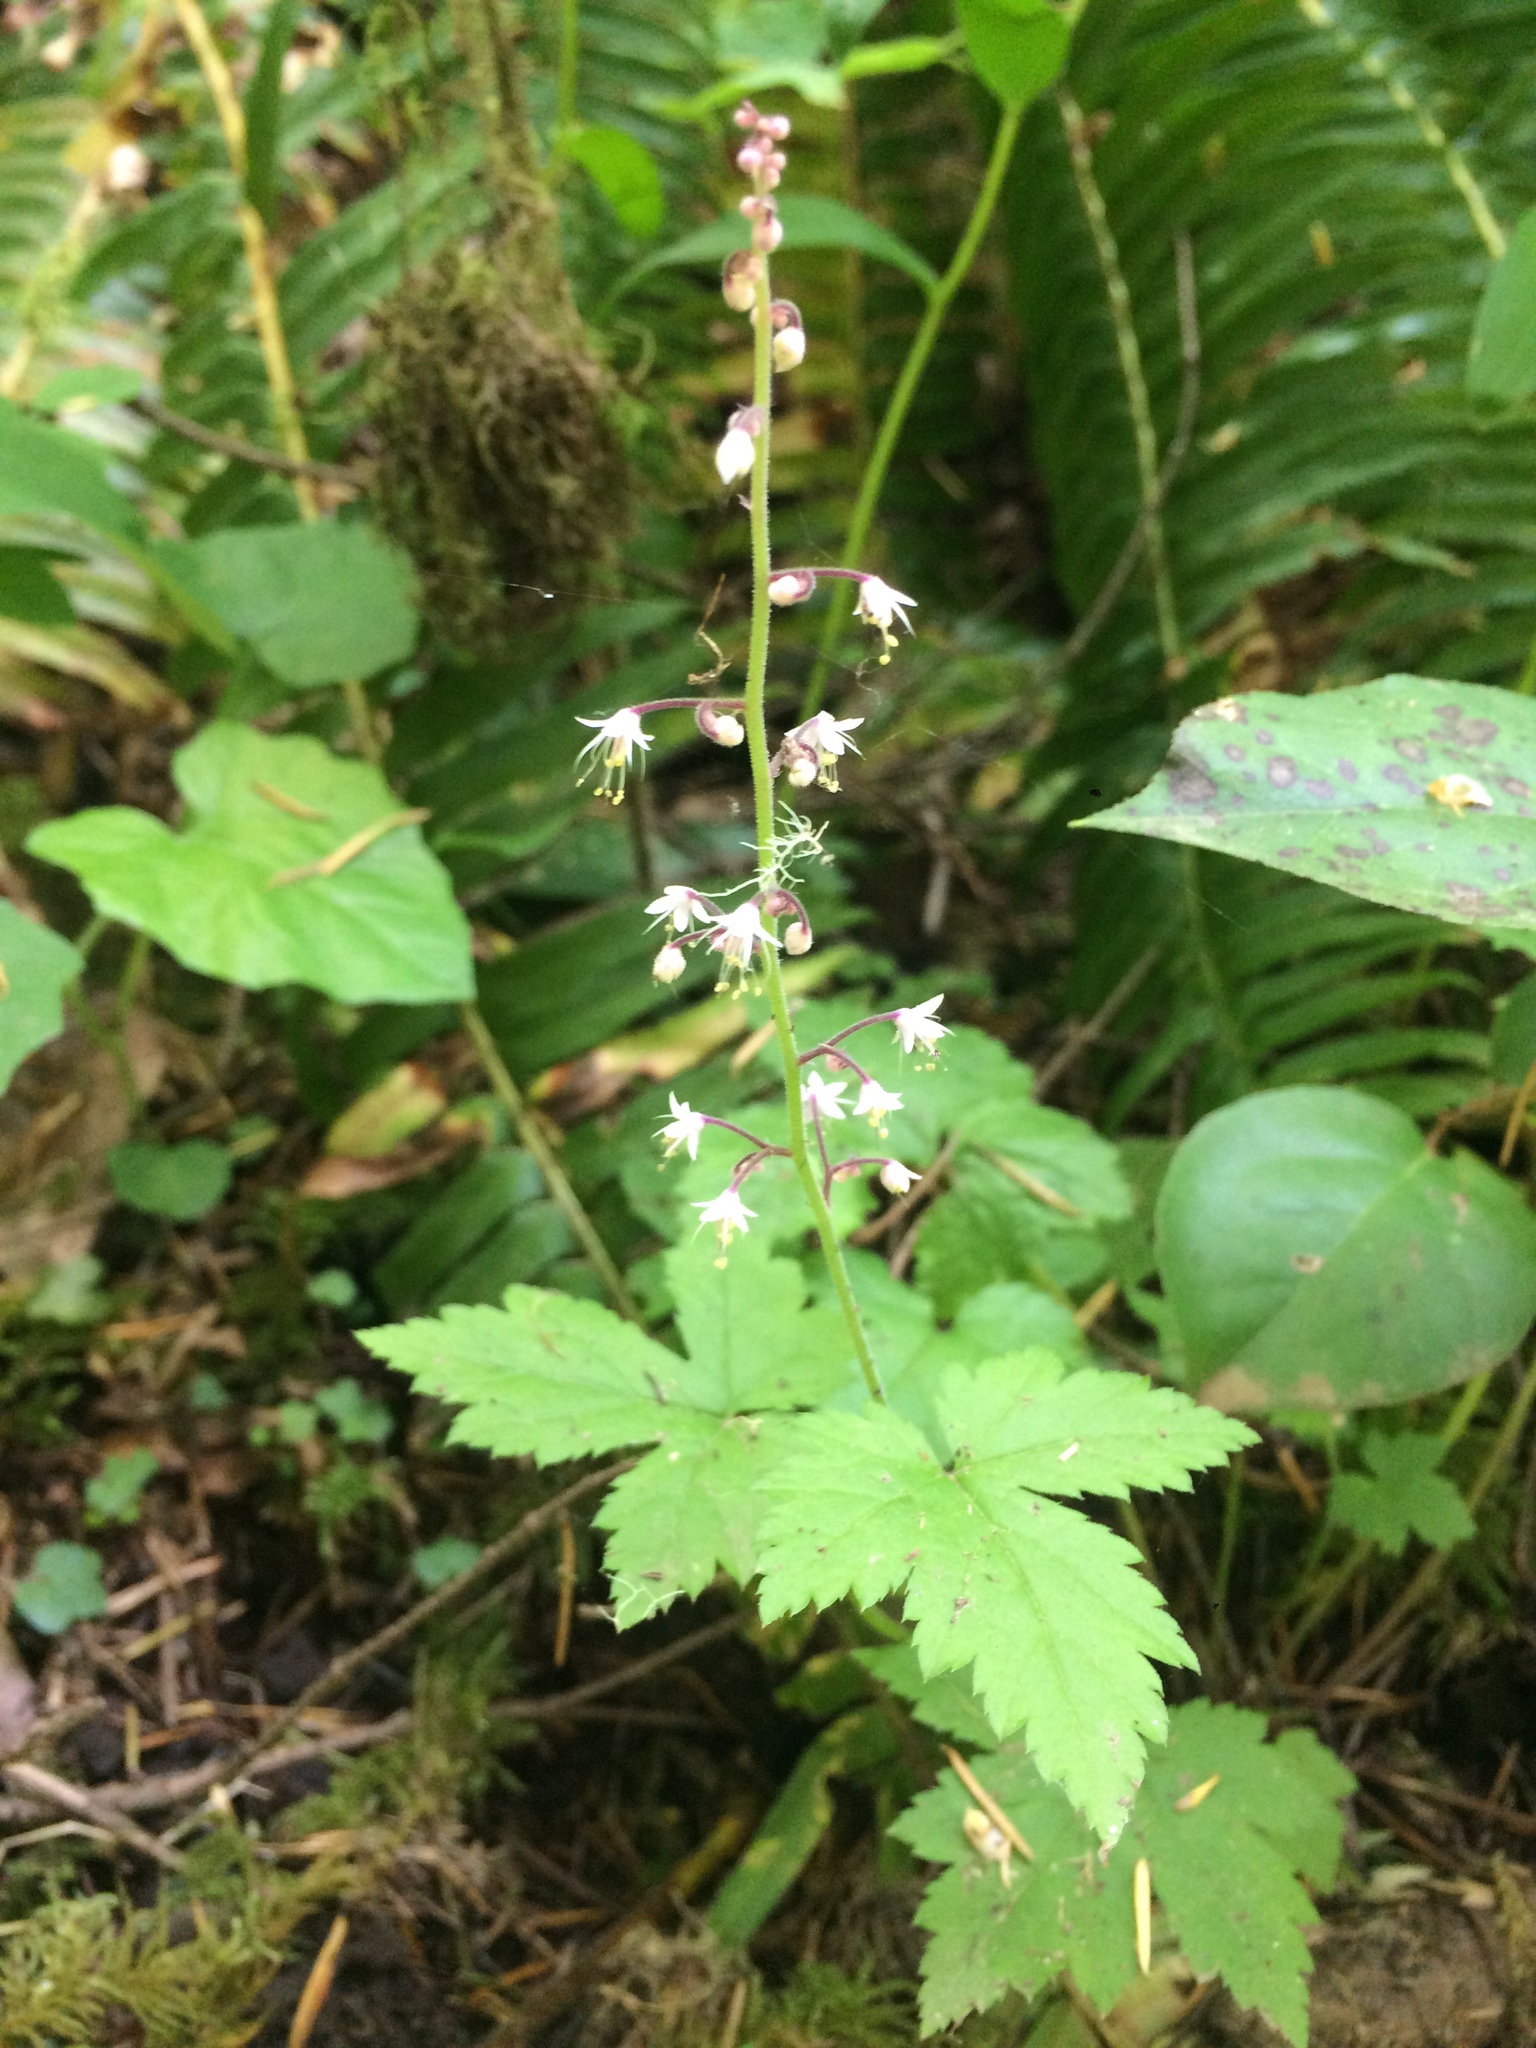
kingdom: Plantae
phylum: Tracheophyta
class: Magnoliopsida
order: Saxifragales
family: Saxifragaceae
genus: Tiarella
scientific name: Tiarella trifoliata
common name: Sugar-scoop
